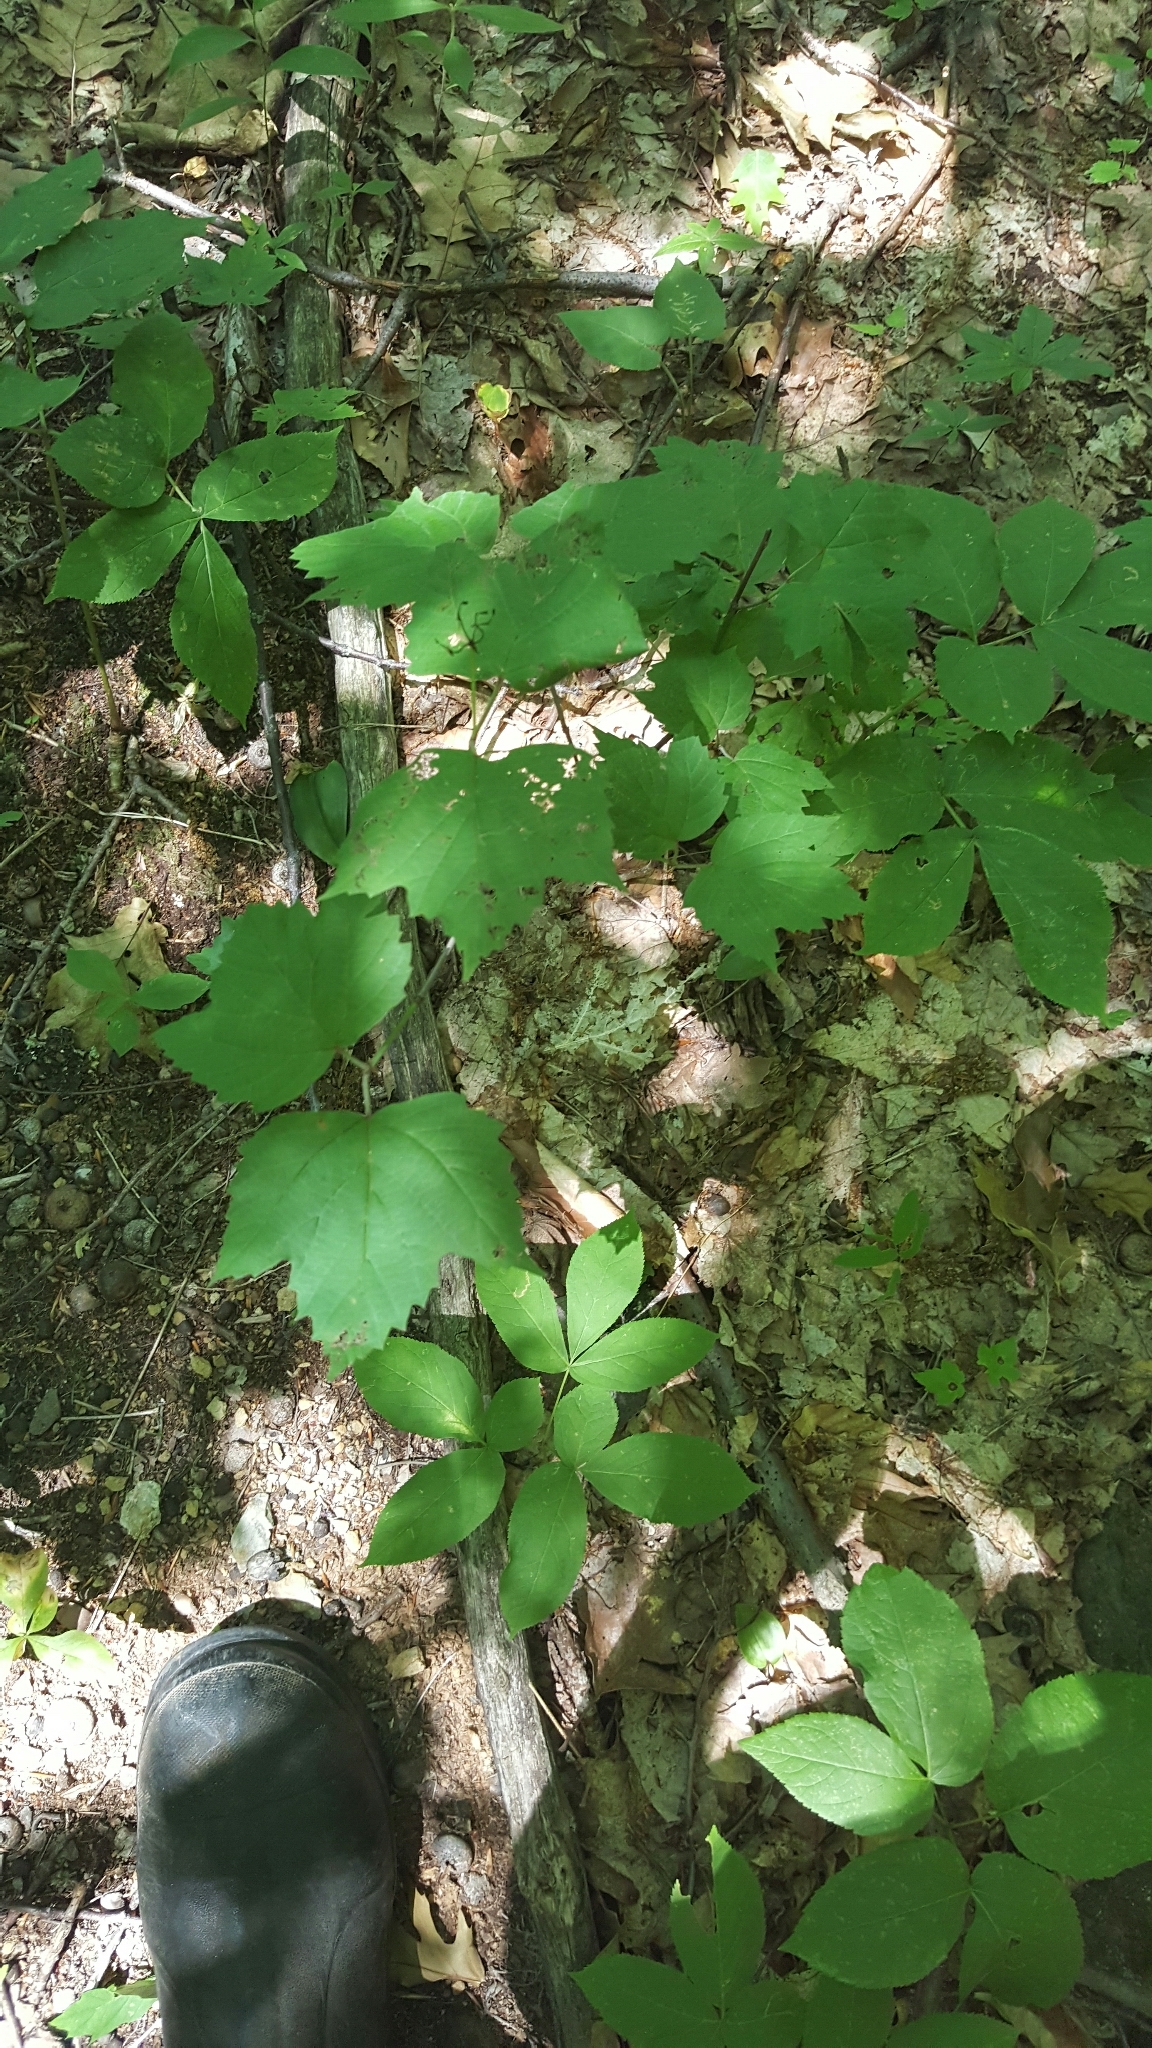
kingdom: Plantae
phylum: Tracheophyta
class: Magnoliopsida
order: Dipsacales
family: Viburnaceae
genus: Viburnum
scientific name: Viburnum acerifolium
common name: Dockmackie
